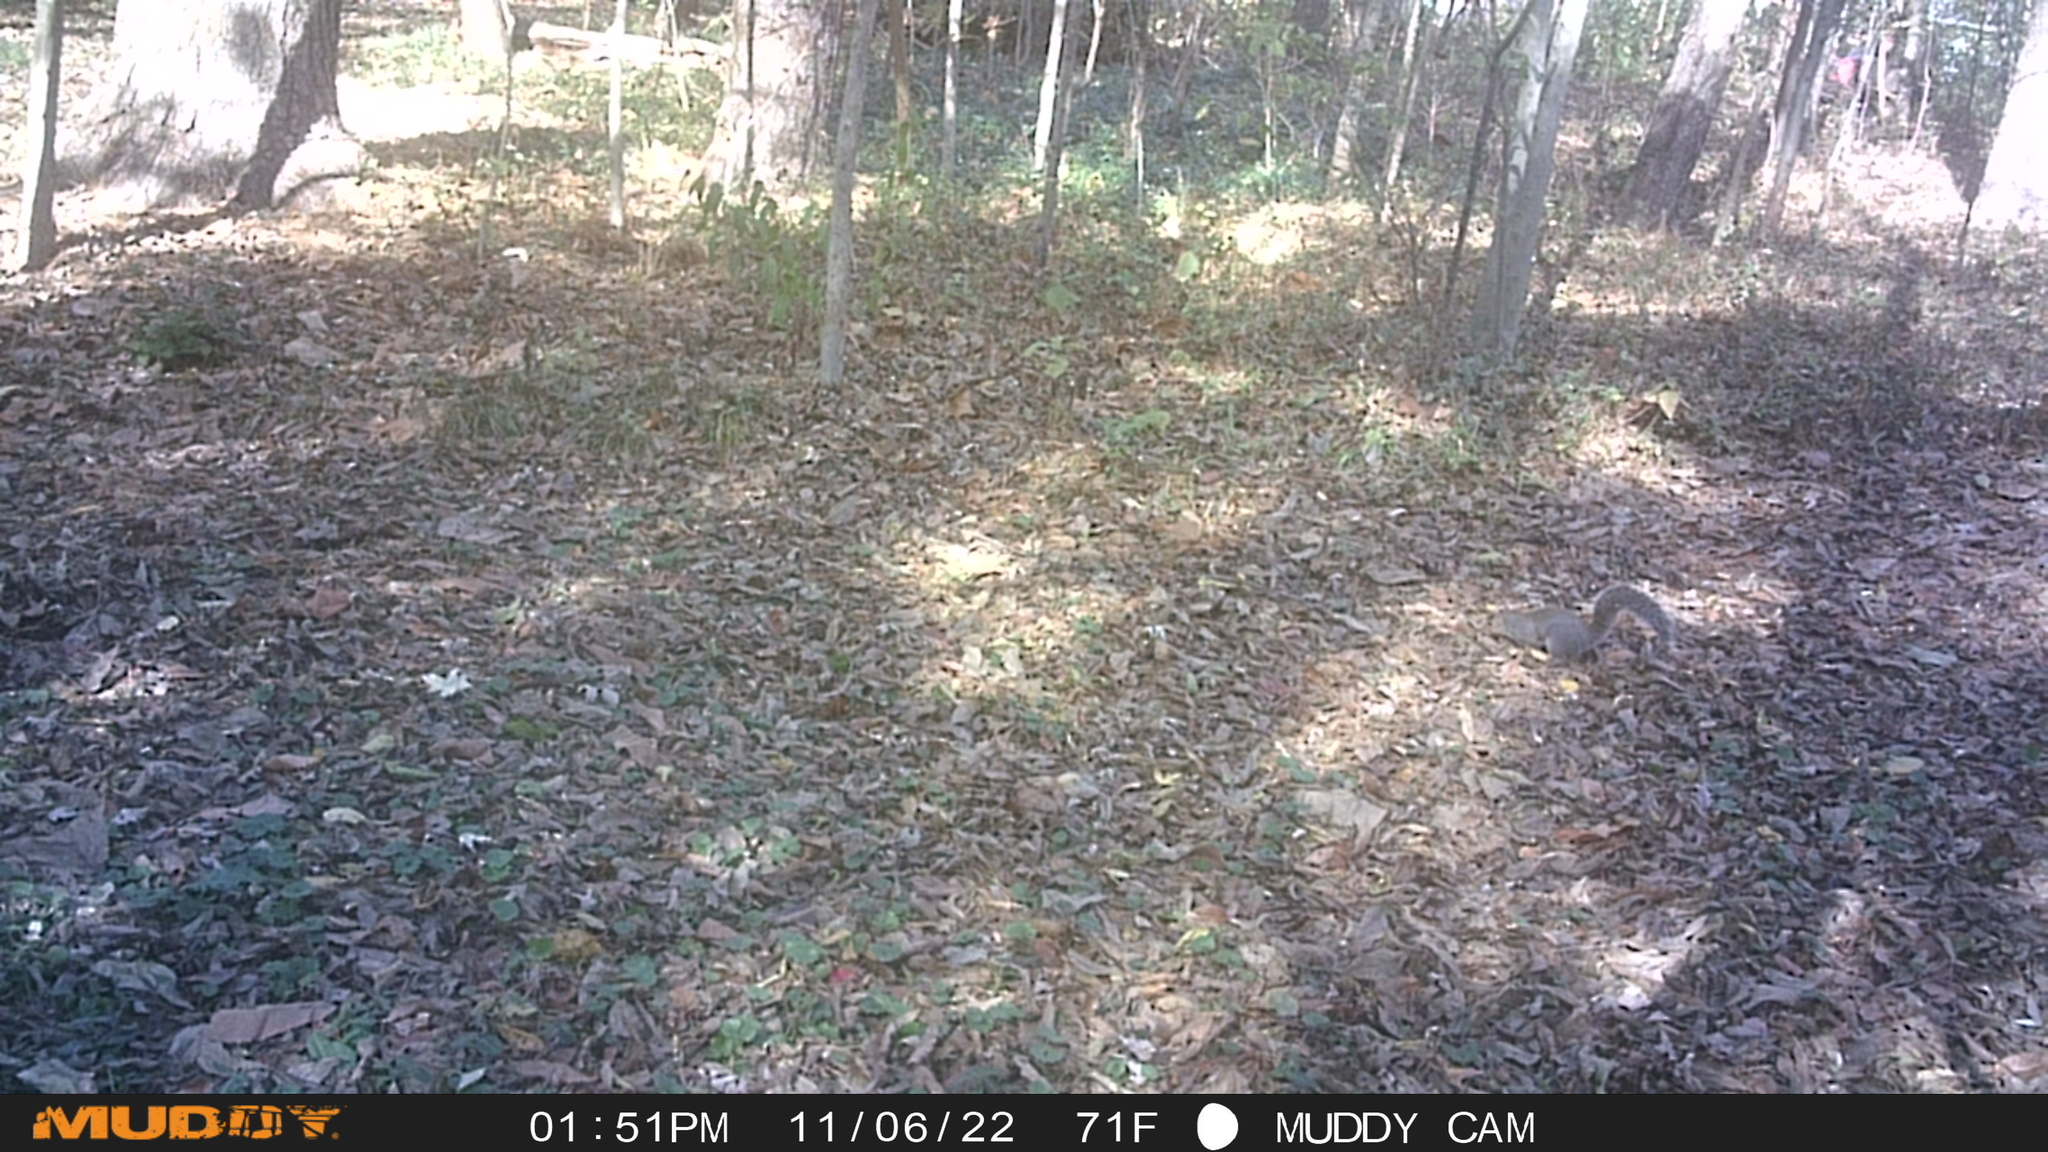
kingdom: Animalia
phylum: Chordata
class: Mammalia
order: Rodentia
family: Sciuridae
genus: Sciurus
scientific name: Sciurus carolinensis
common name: Eastern gray squirrel
